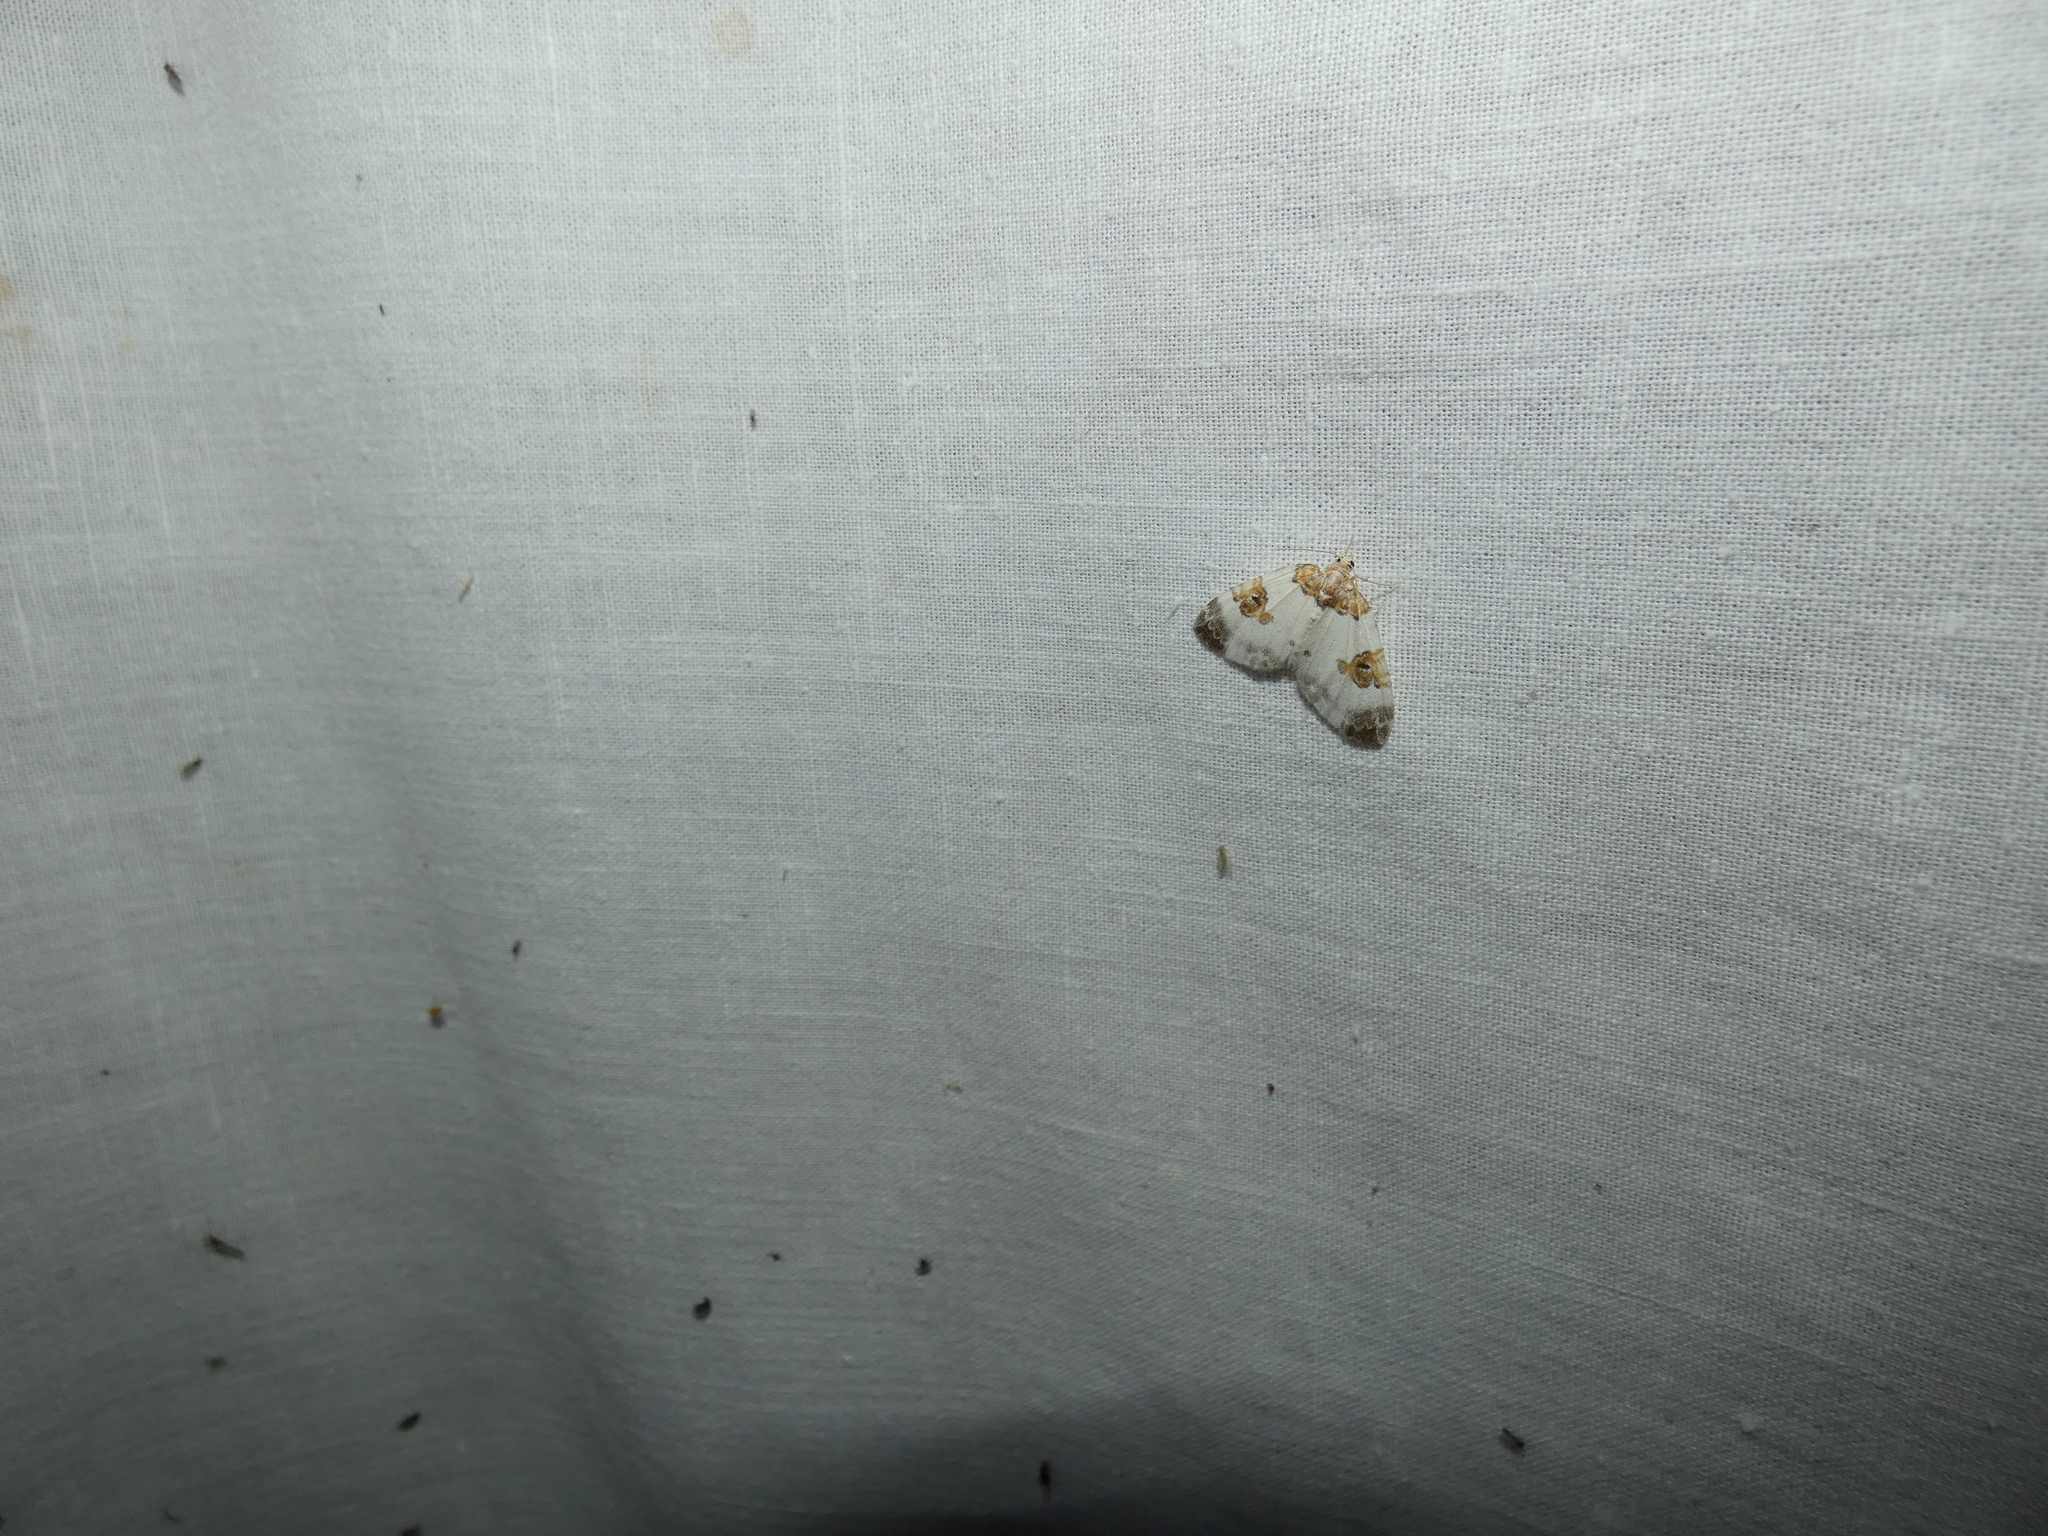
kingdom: Animalia
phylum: Arthropoda
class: Insecta
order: Lepidoptera
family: Geometridae
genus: Plemyria
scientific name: Plemyria rubiginata
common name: Blue-bordered carpet
